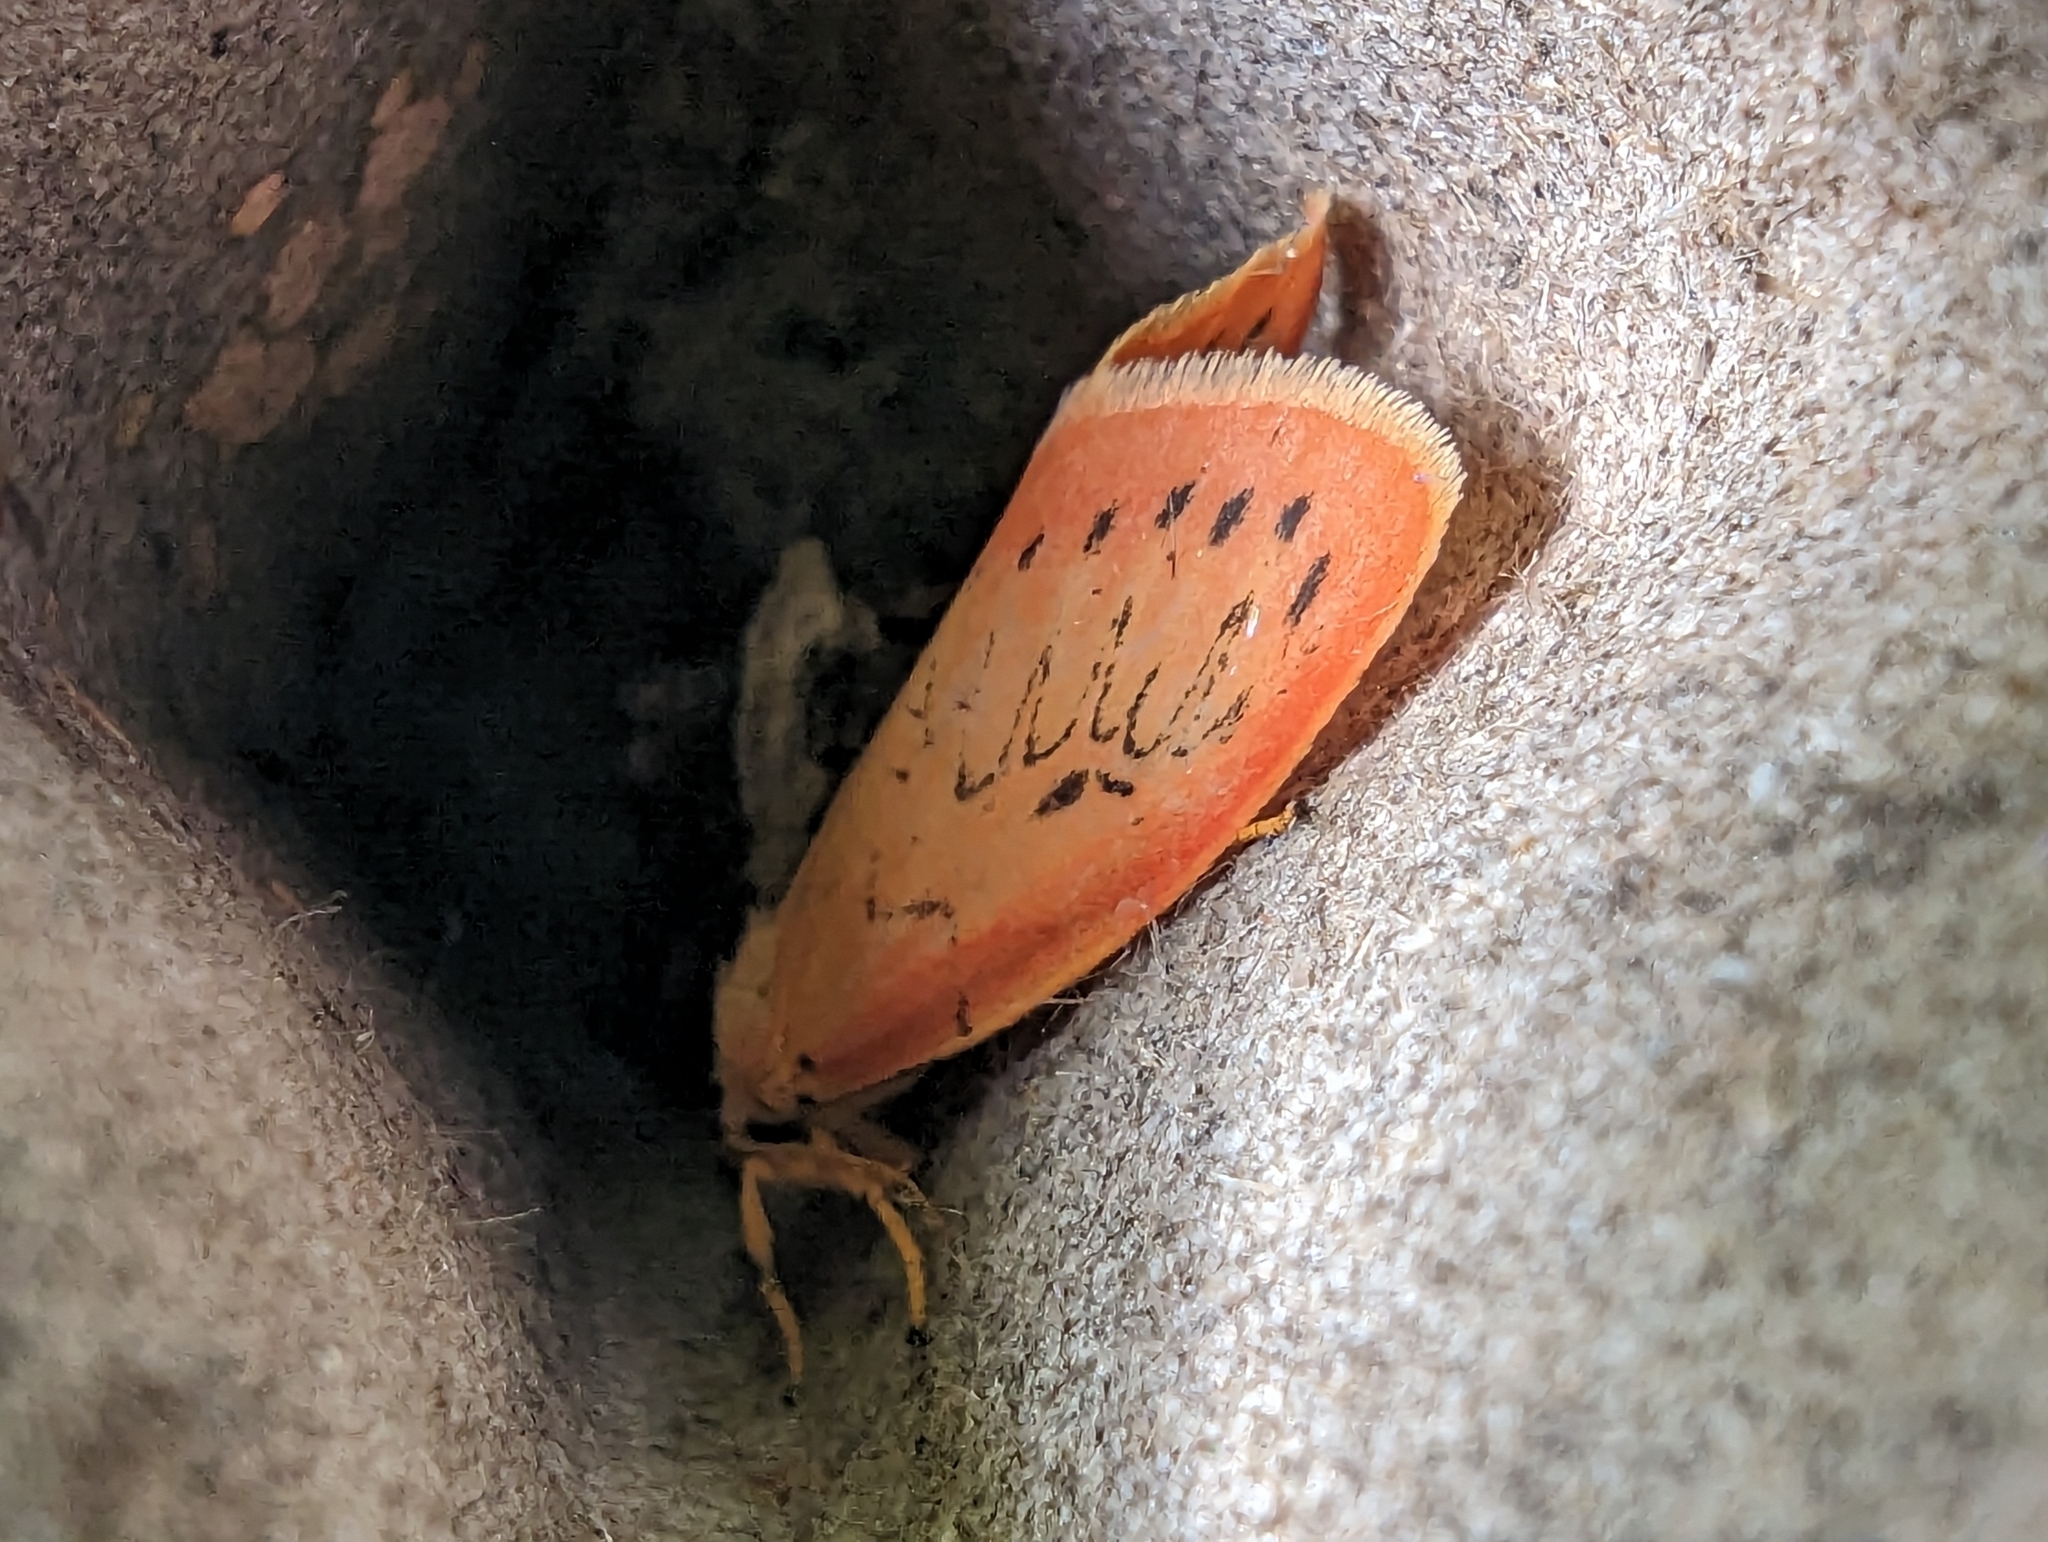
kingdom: Animalia
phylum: Arthropoda
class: Insecta
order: Lepidoptera
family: Erebidae
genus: Miltochrista
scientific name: Miltochrista miniata
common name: Rosy footman
